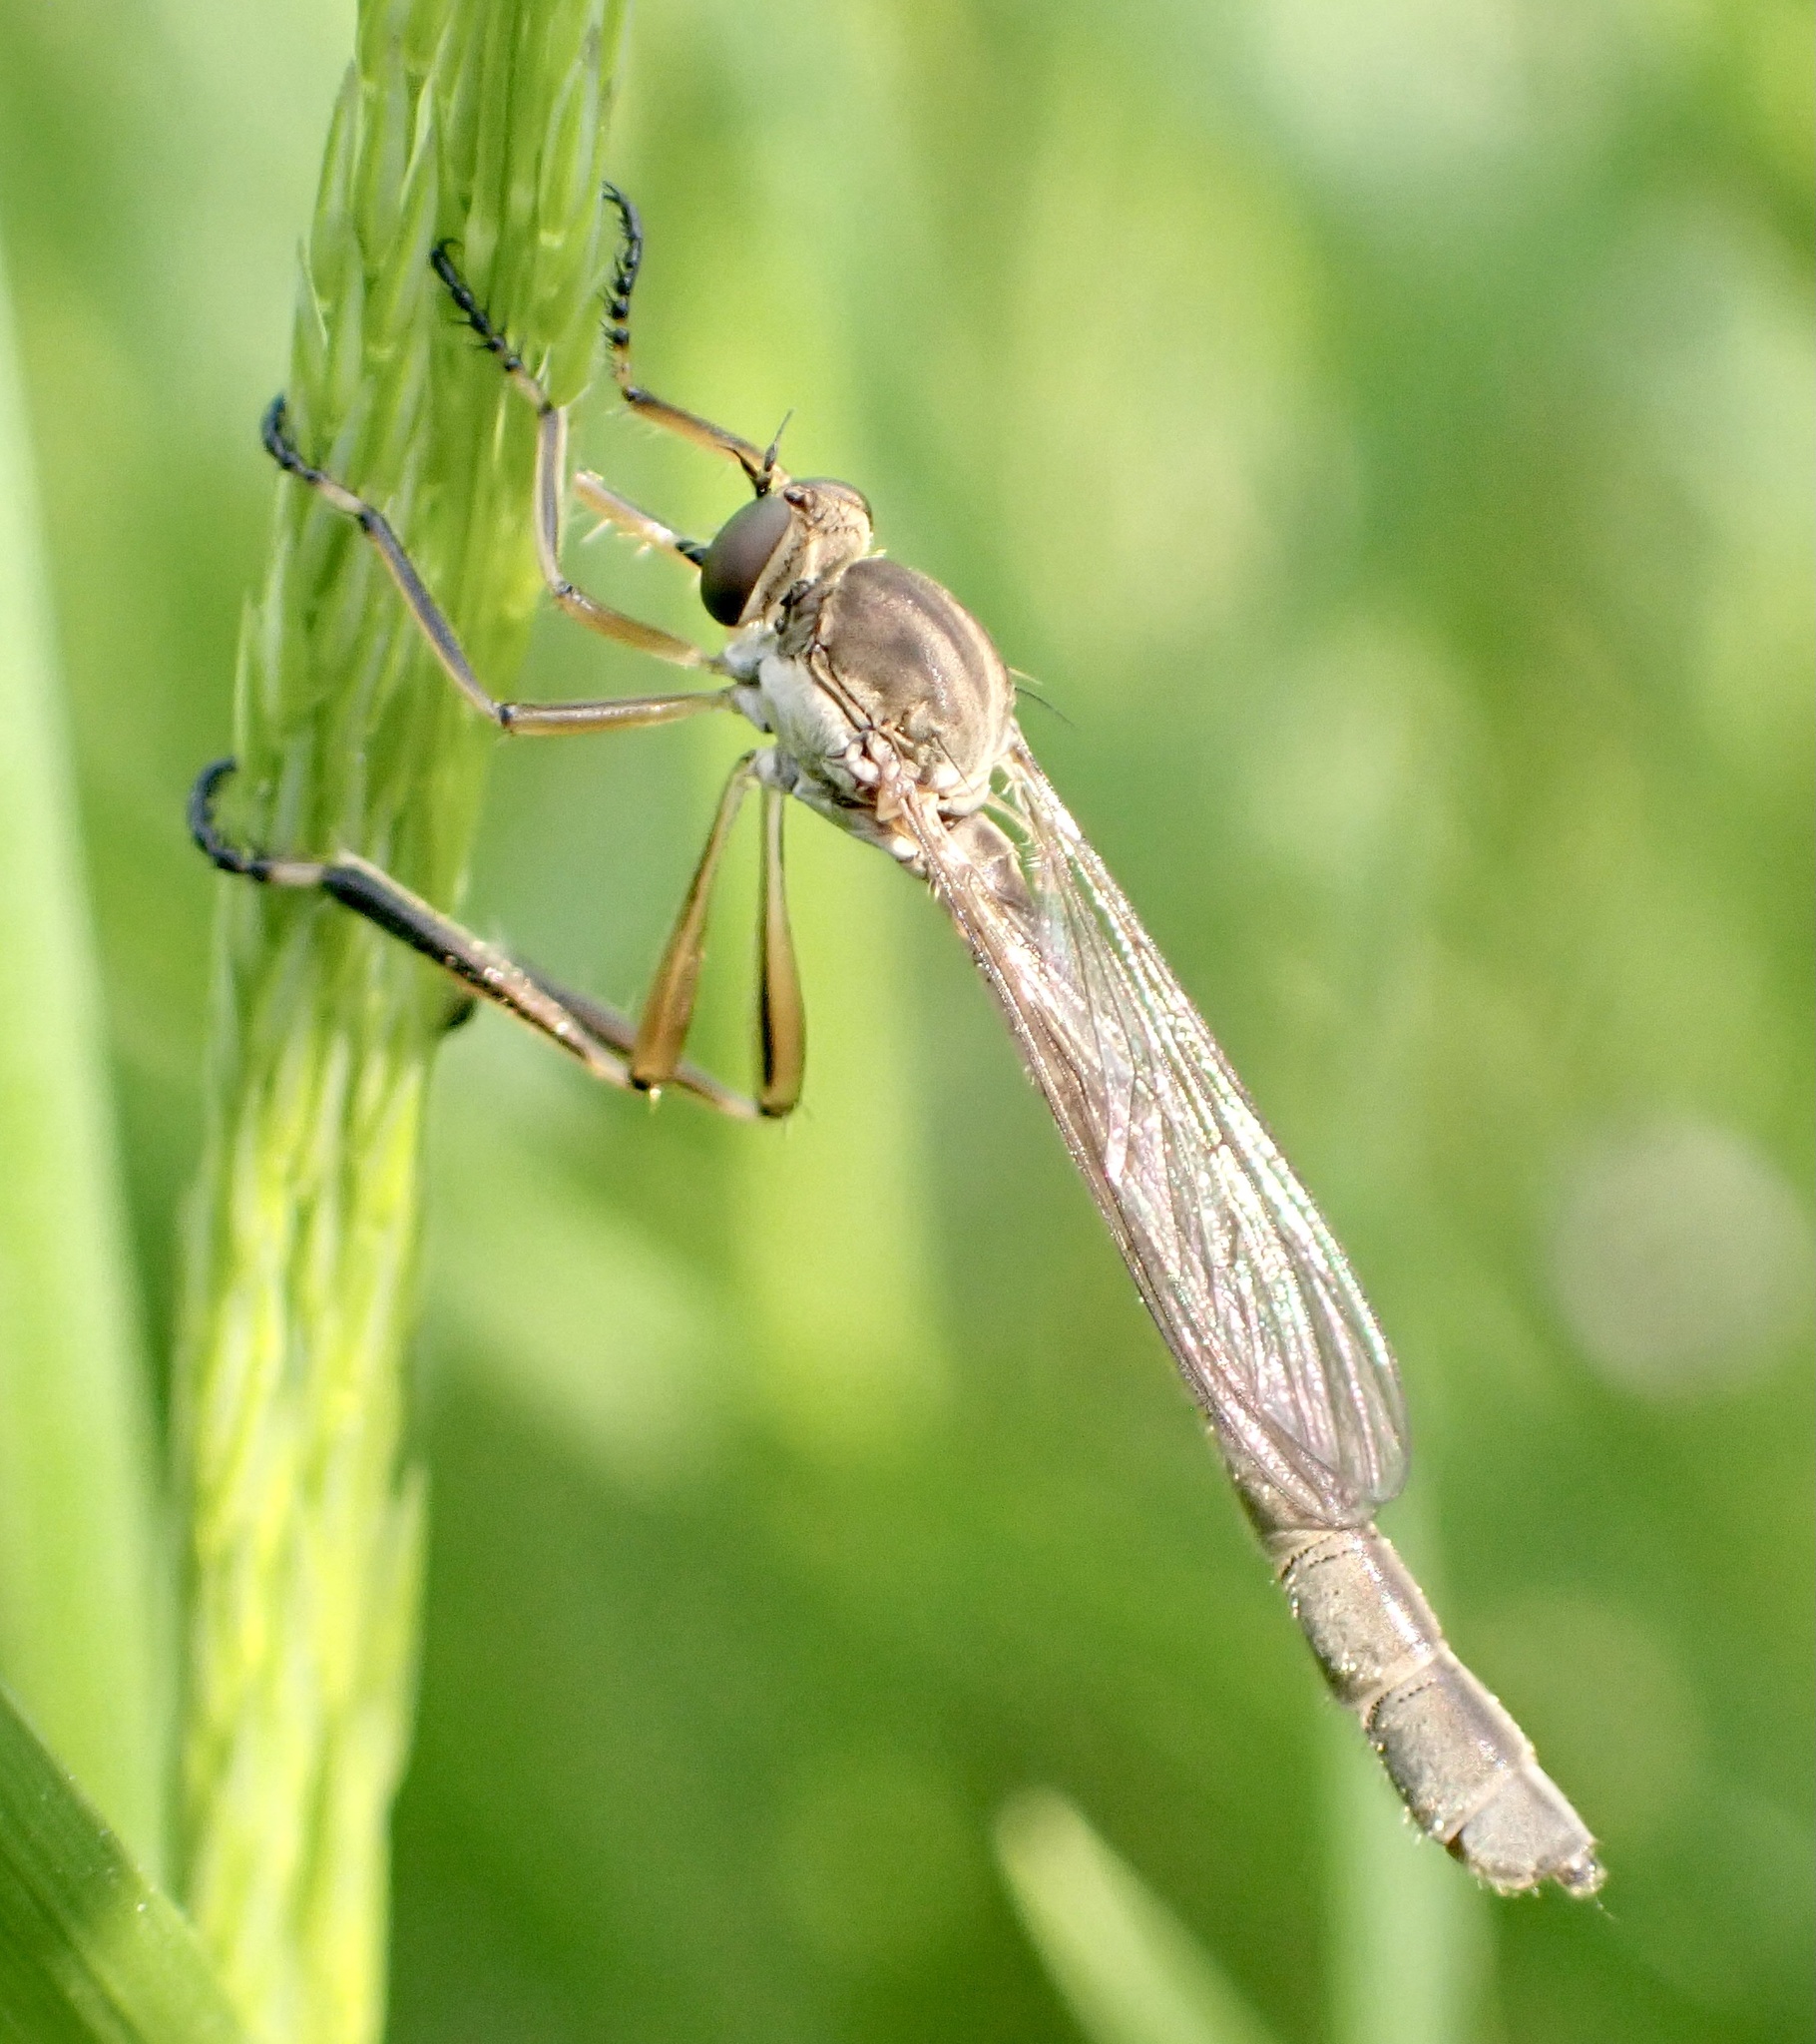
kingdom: Animalia
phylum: Arthropoda
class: Insecta
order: Diptera
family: Asilidae
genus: Leptogaster
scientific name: Leptogaster cylindrica
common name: Striped slender robberfly
